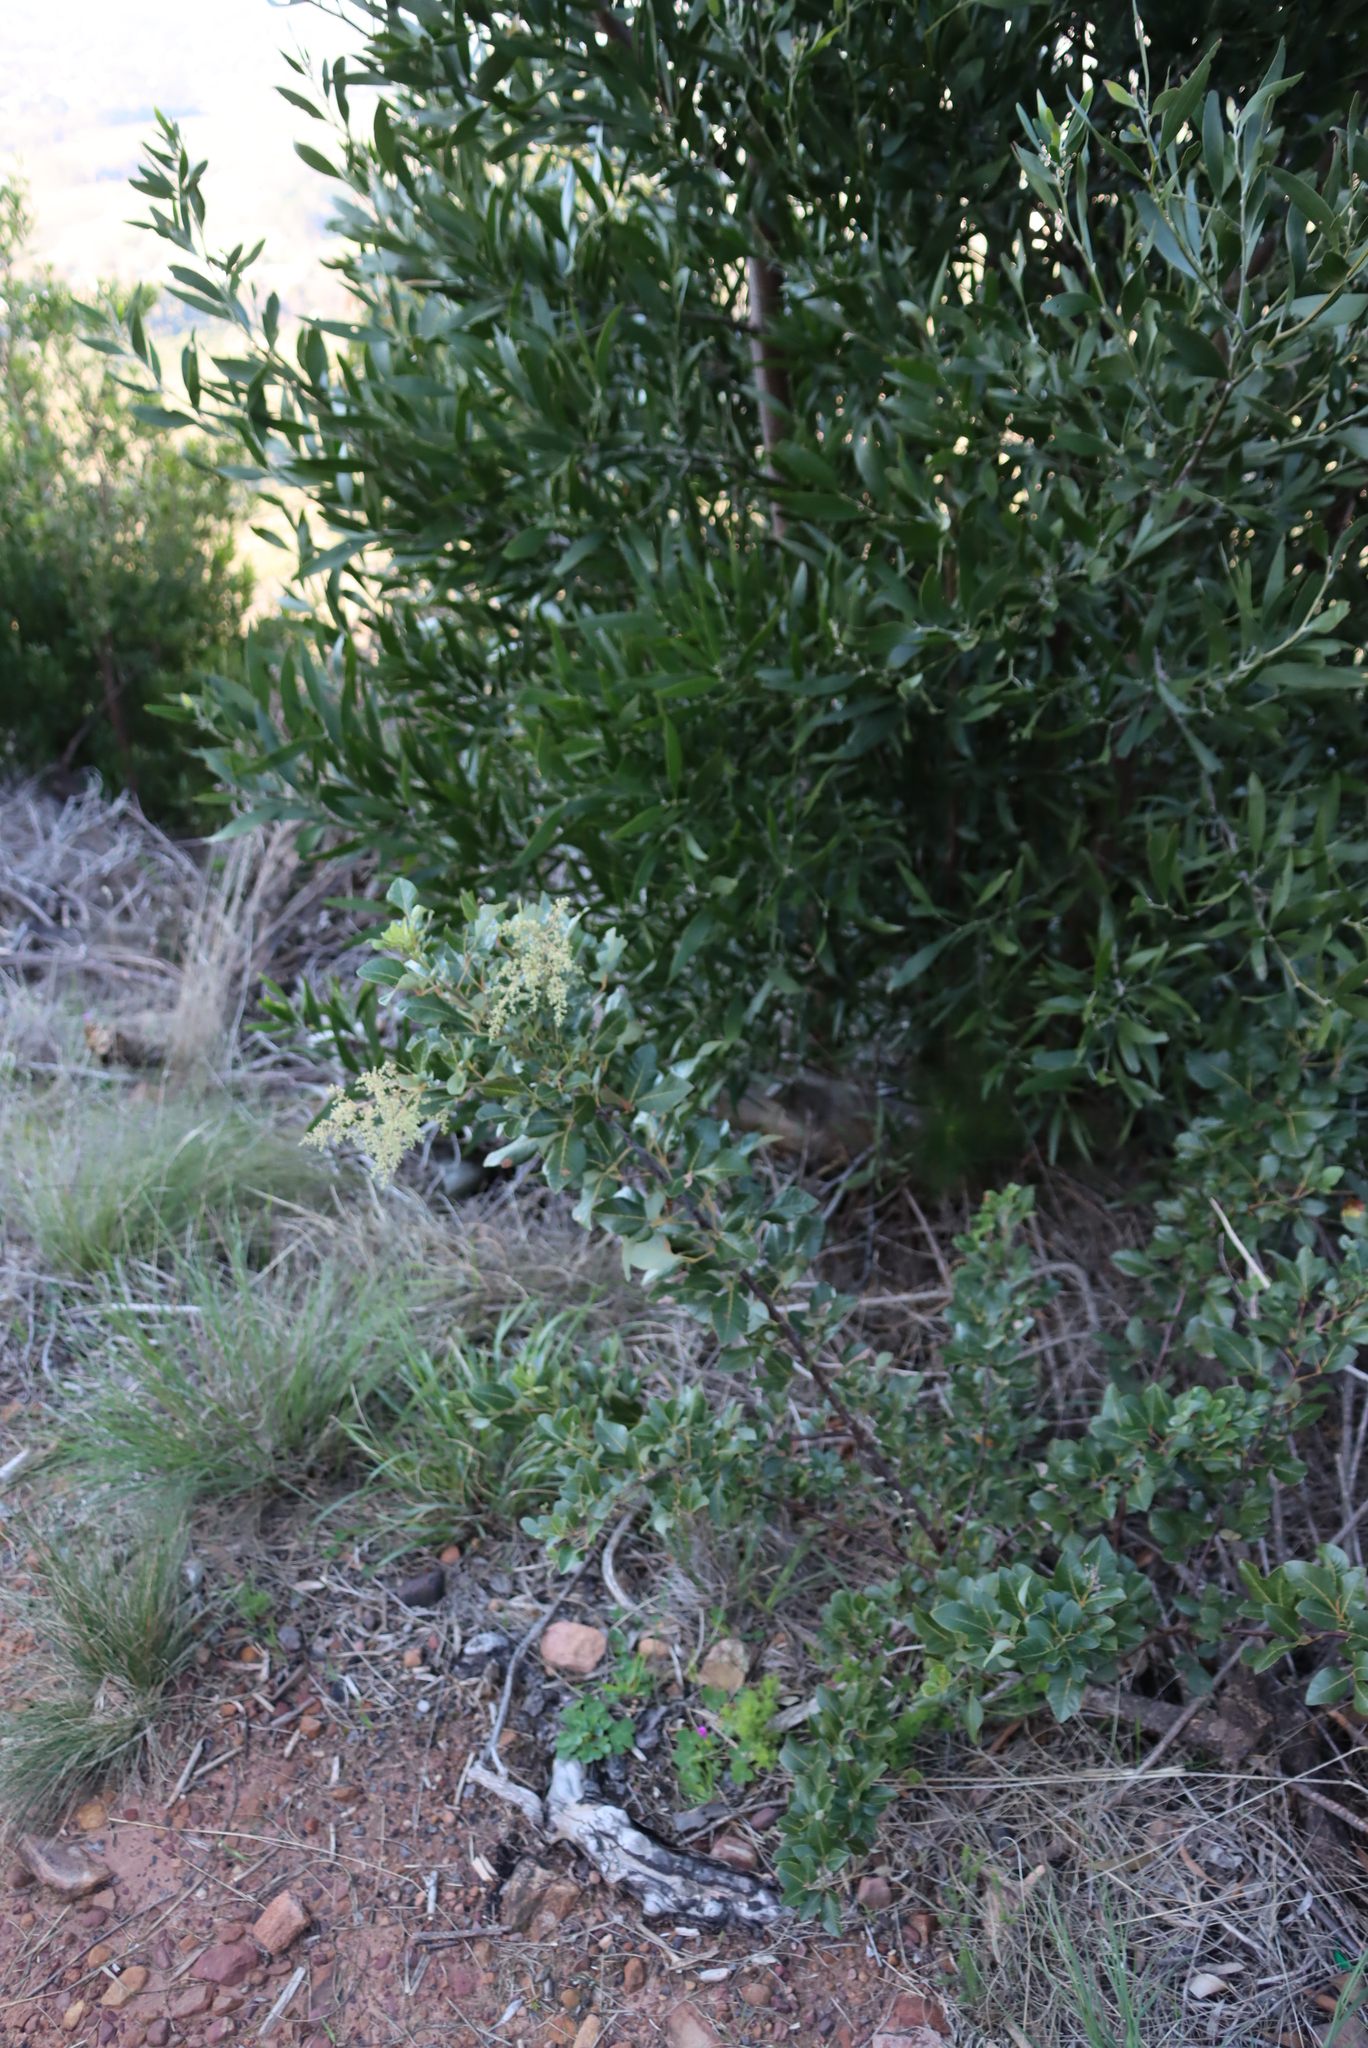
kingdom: Plantae
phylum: Tracheophyta
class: Magnoliopsida
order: Sapindales
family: Anacardiaceae
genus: Searsia
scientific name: Searsia tomentosa
